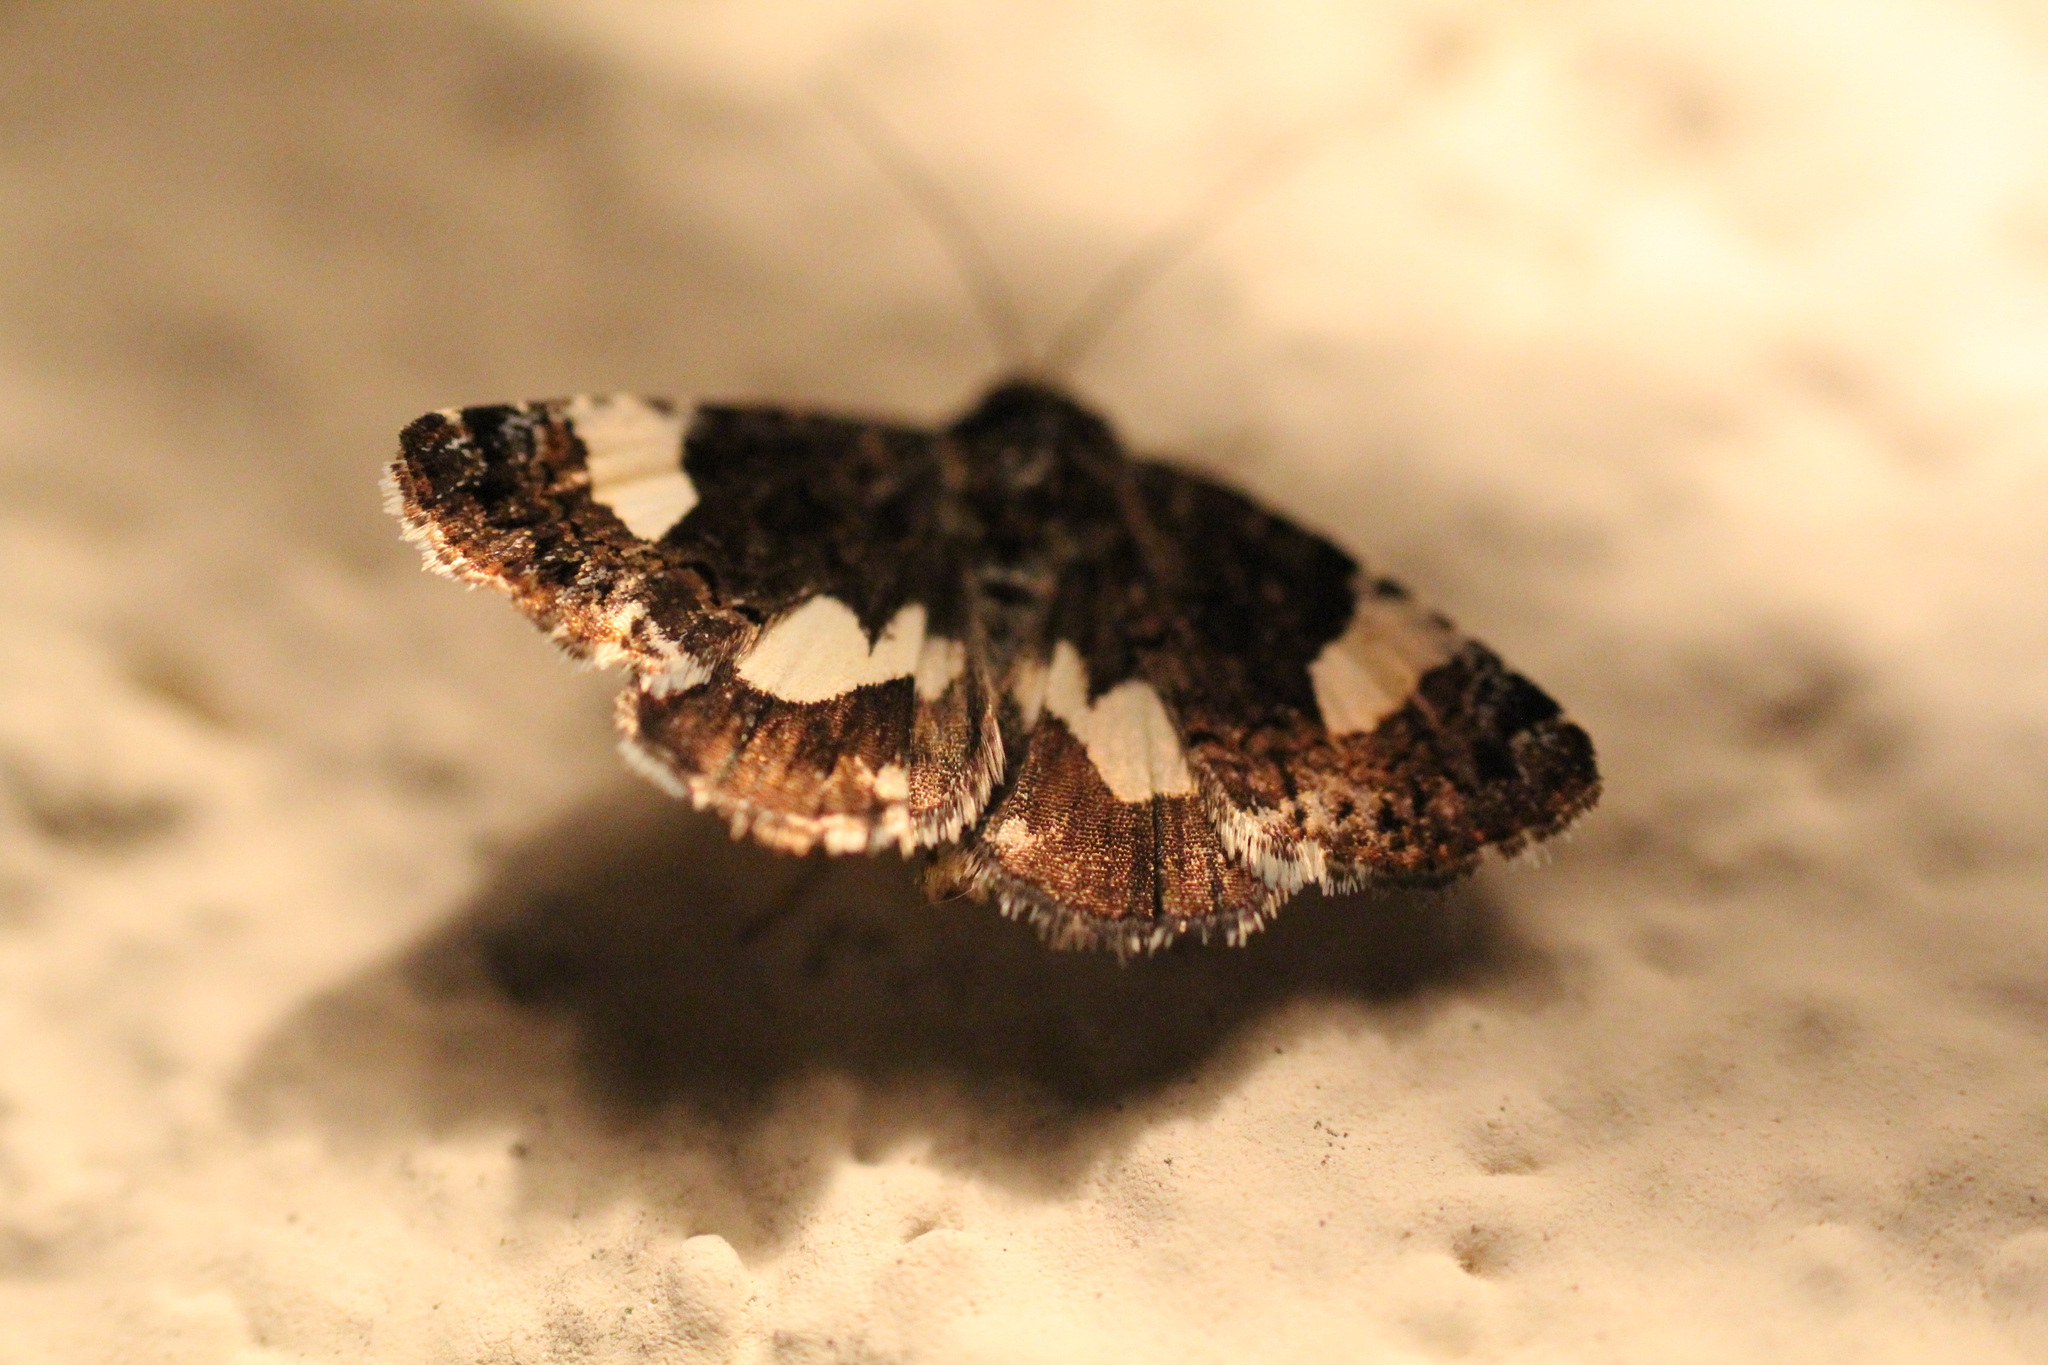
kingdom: Animalia
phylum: Arthropoda
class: Insecta
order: Lepidoptera
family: Erebidae
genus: Tyta
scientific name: Tyta luctuosa
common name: Four-spotted
